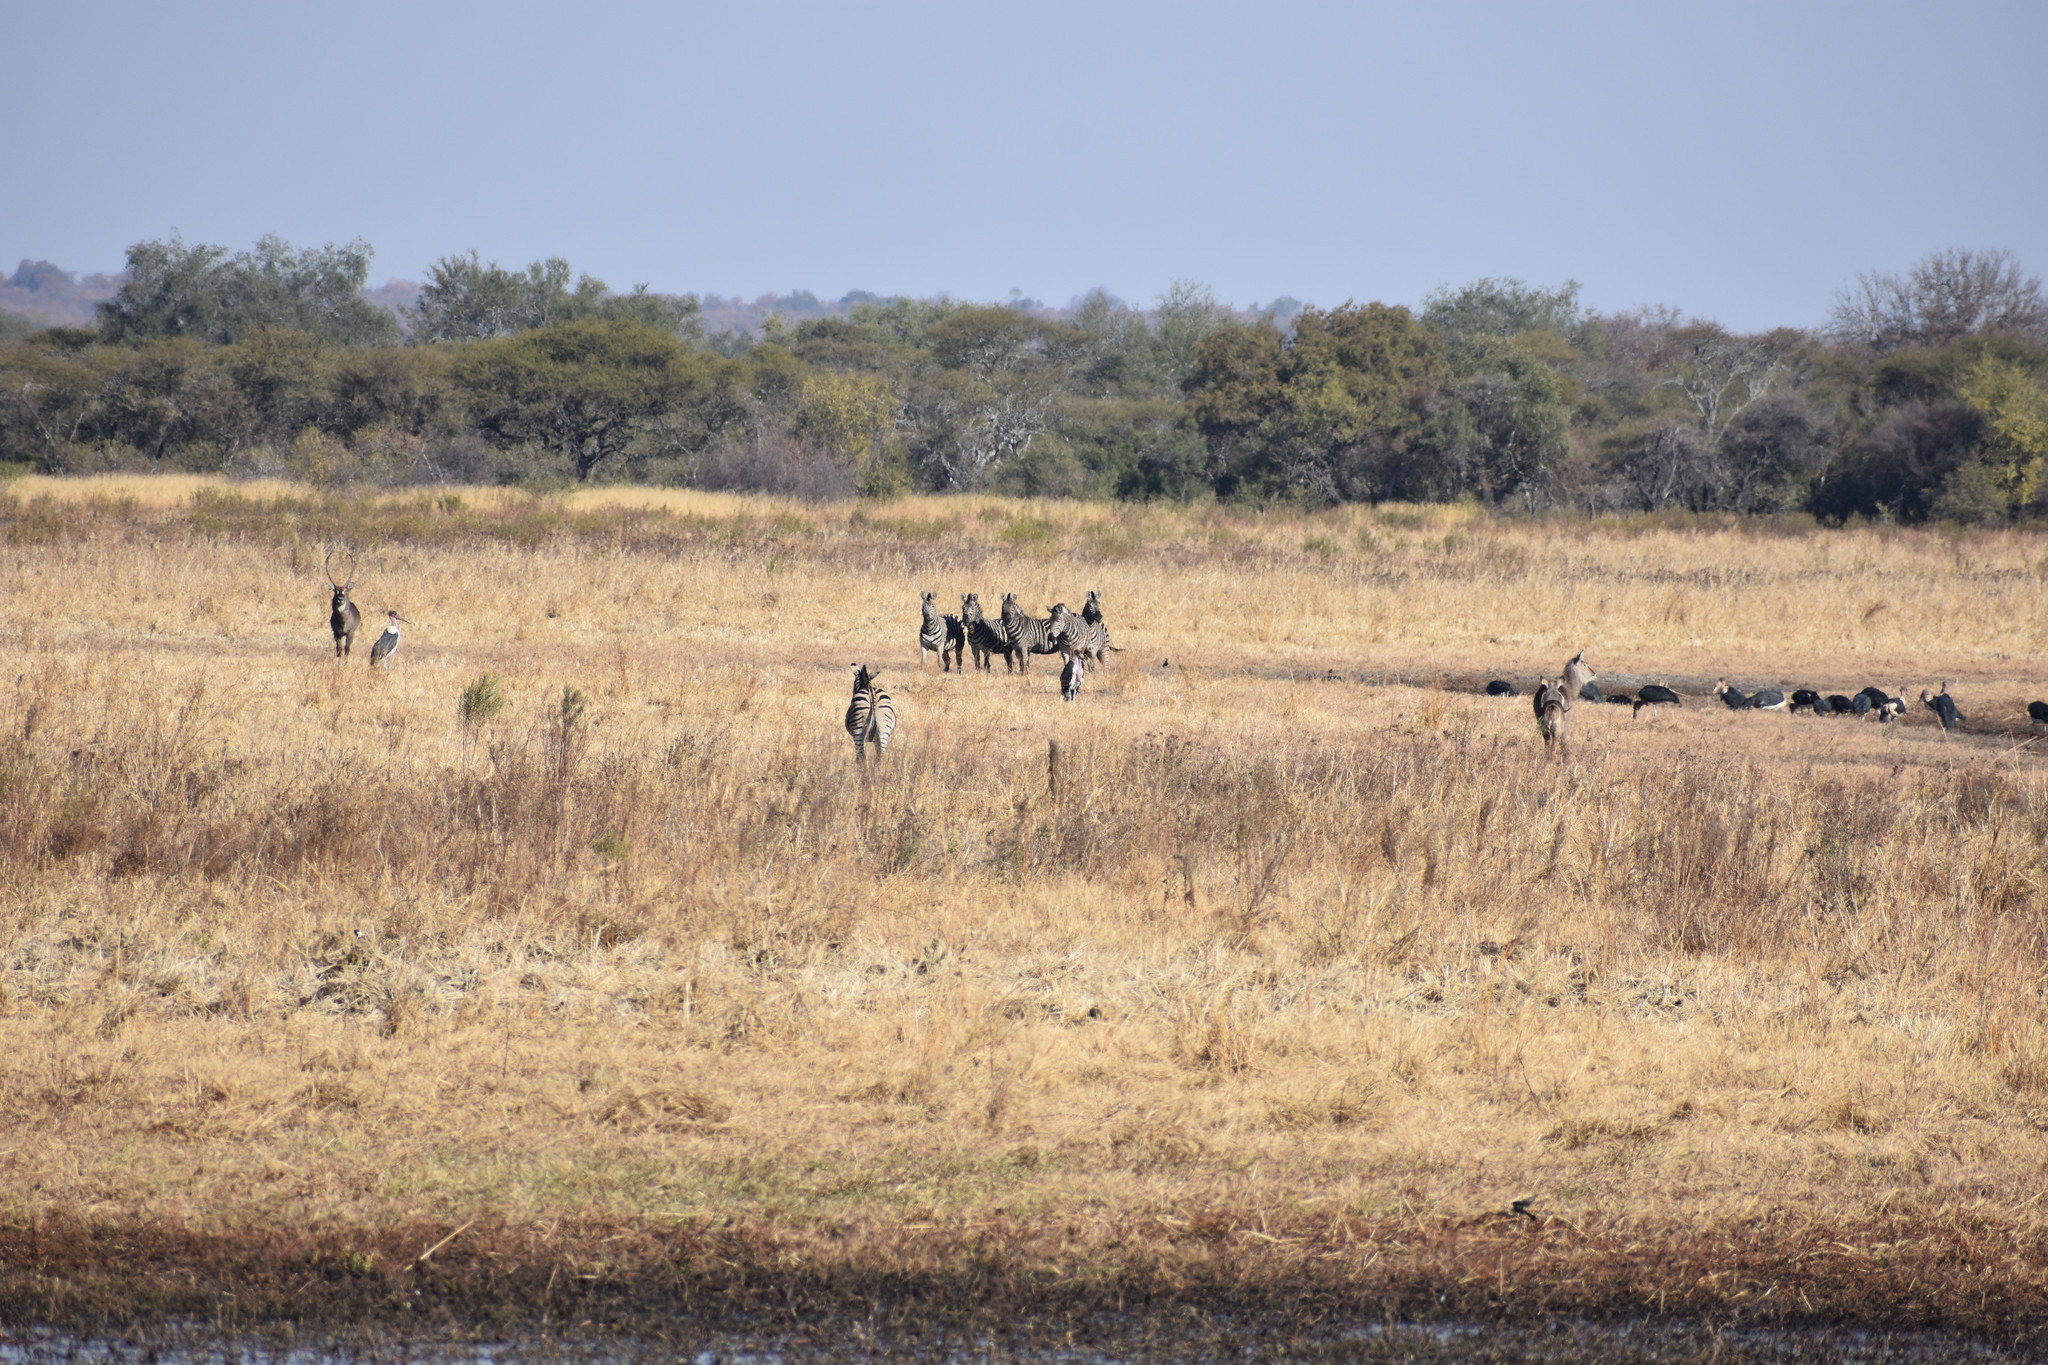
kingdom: Animalia
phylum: Chordata
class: Mammalia
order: Perissodactyla
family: Equidae
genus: Equus
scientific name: Equus quagga
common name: Plains zebra
